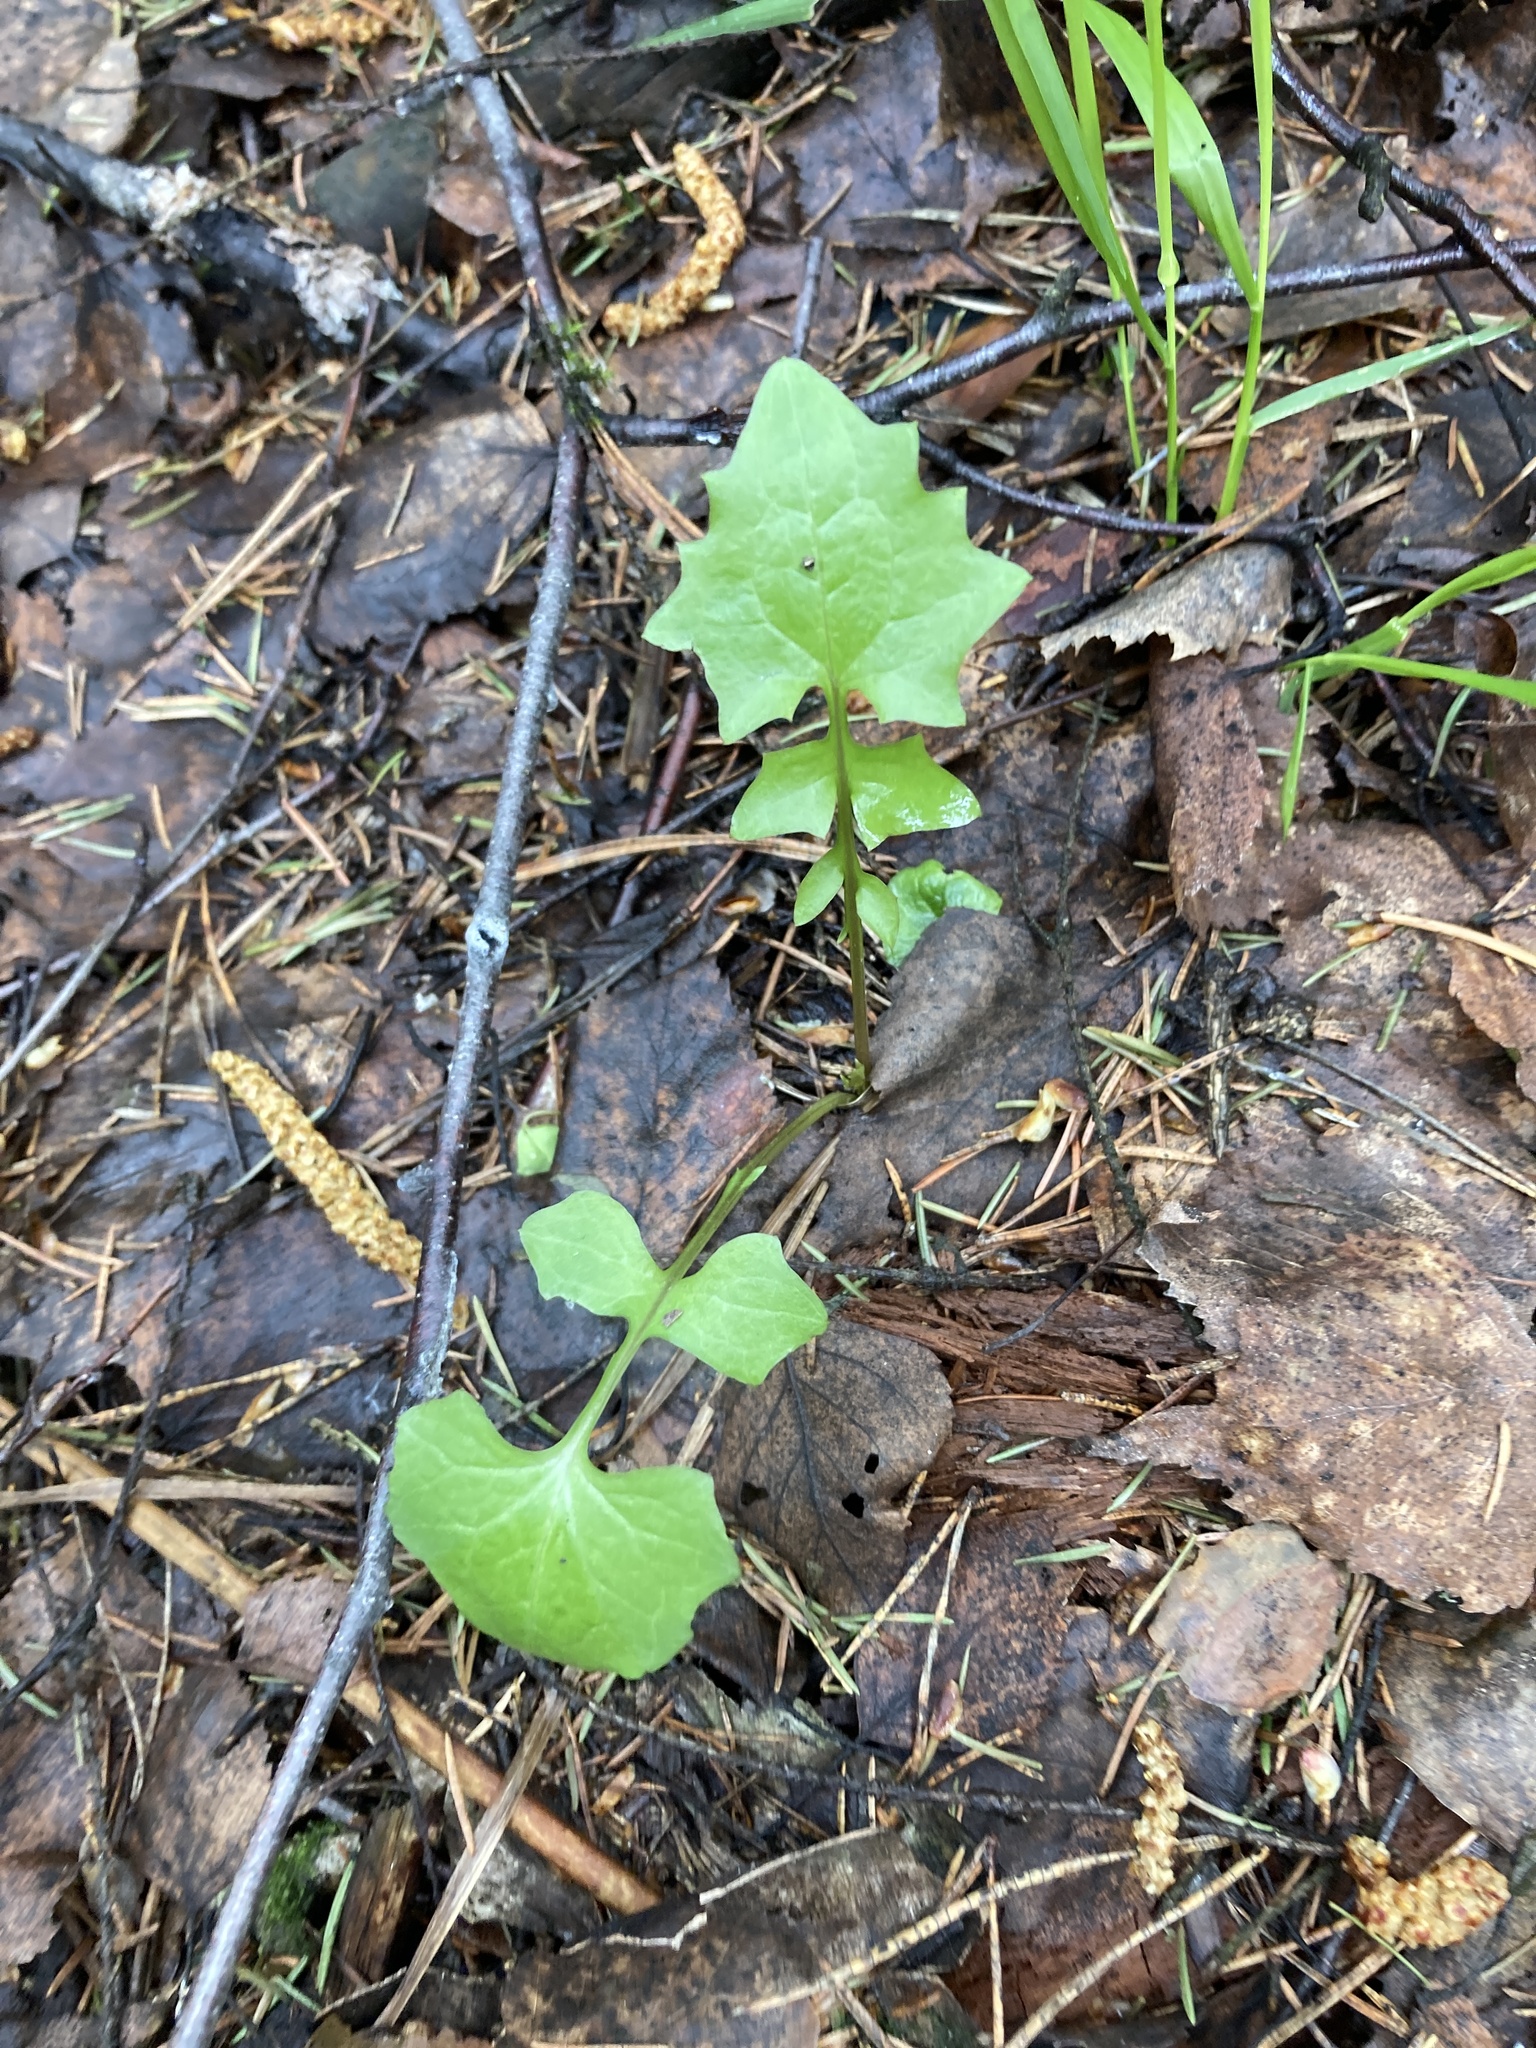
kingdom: Plantae
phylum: Tracheophyta
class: Magnoliopsida
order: Asterales
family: Asteraceae
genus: Mycelis
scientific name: Mycelis muralis
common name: Wall lettuce
